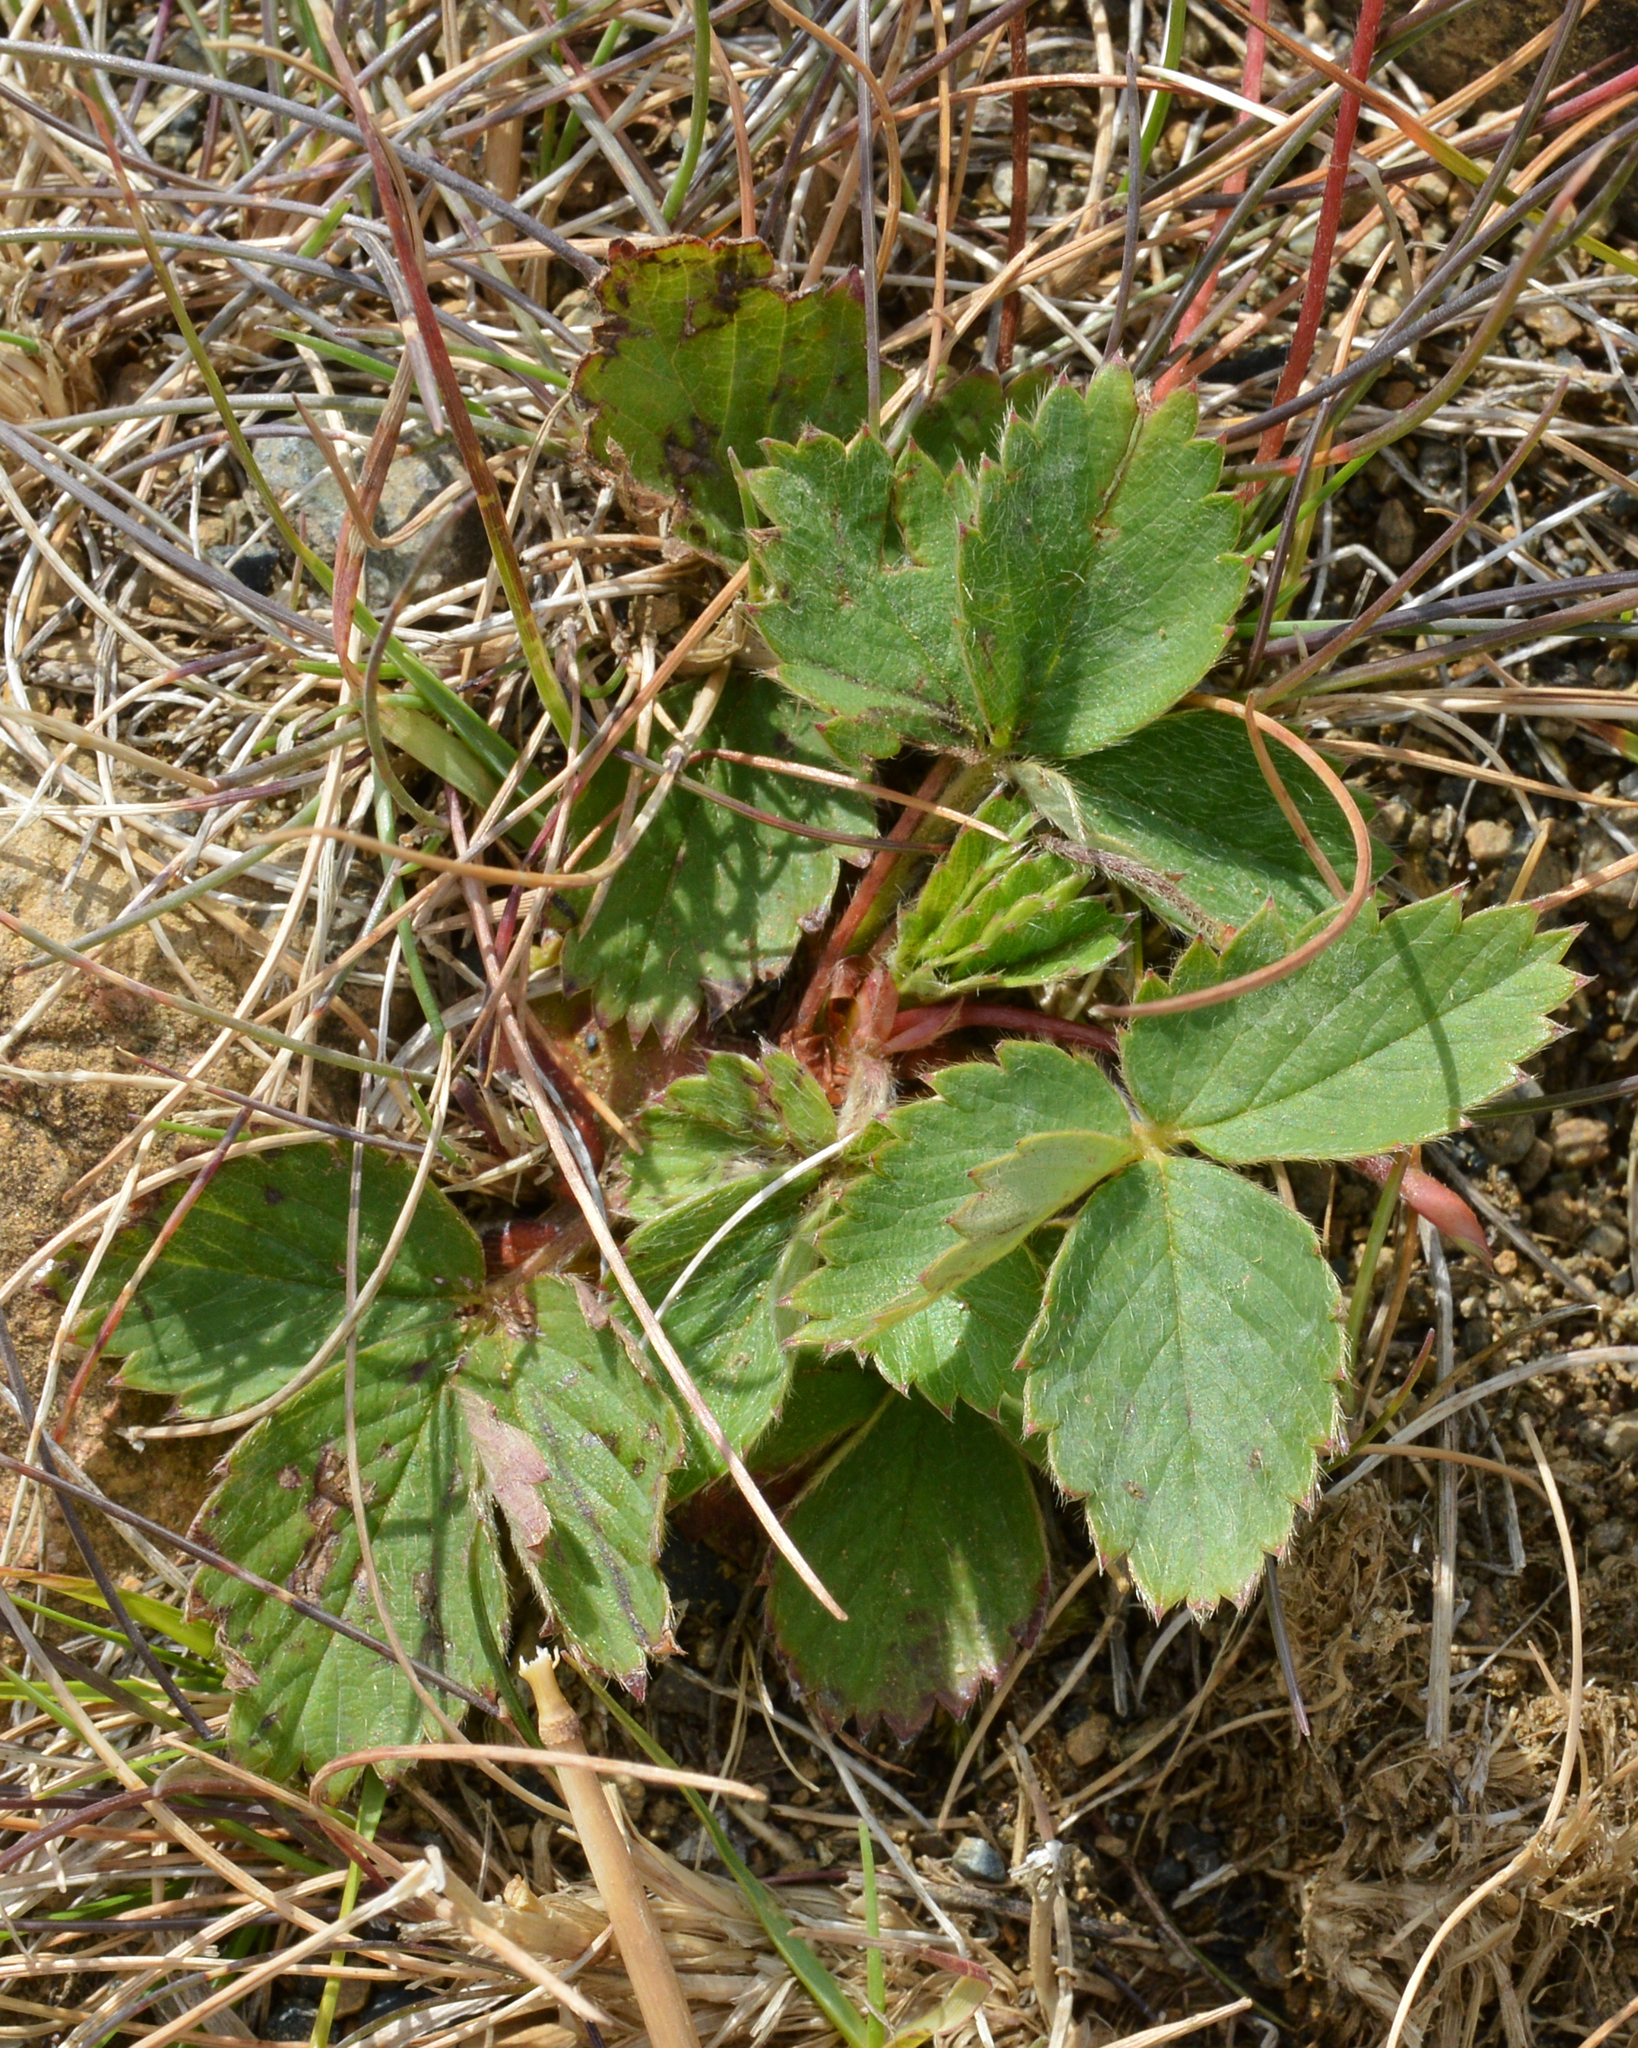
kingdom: Plantae
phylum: Tracheophyta
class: Magnoliopsida
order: Rosales
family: Rosaceae
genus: Fragaria
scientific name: Fragaria virginiana
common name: Thickleaved wild strawberry
